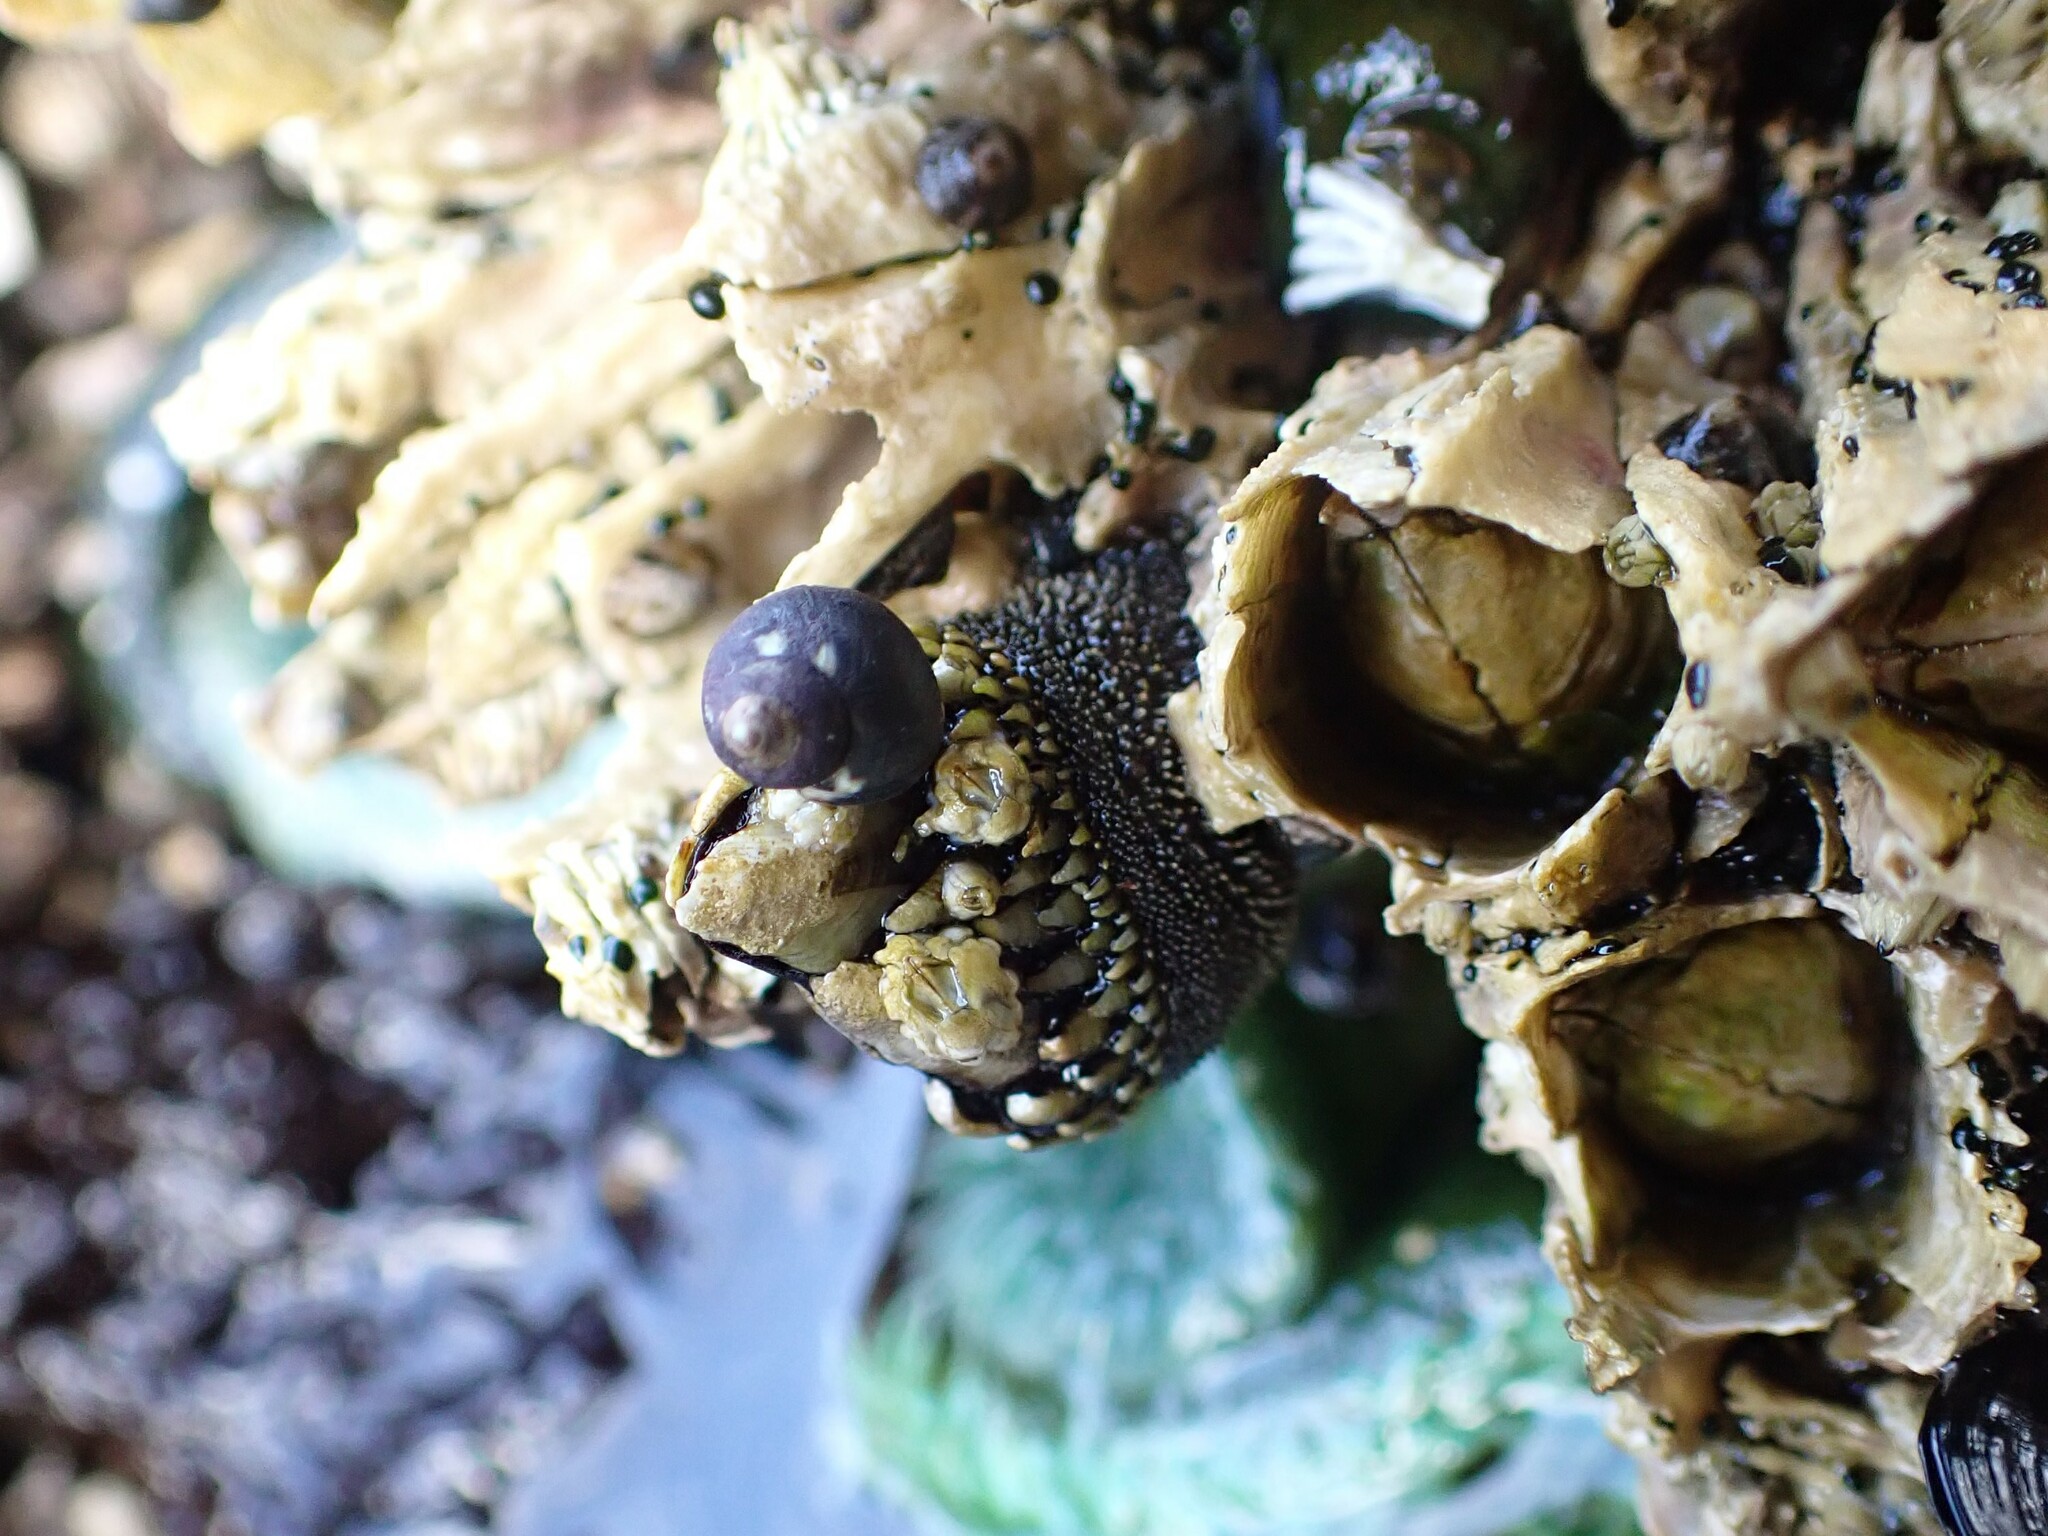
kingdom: Animalia
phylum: Arthropoda
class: Maxillopoda
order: Pedunculata
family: Pollicipedidae
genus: Pollicipes
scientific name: Pollicipes polymerus
